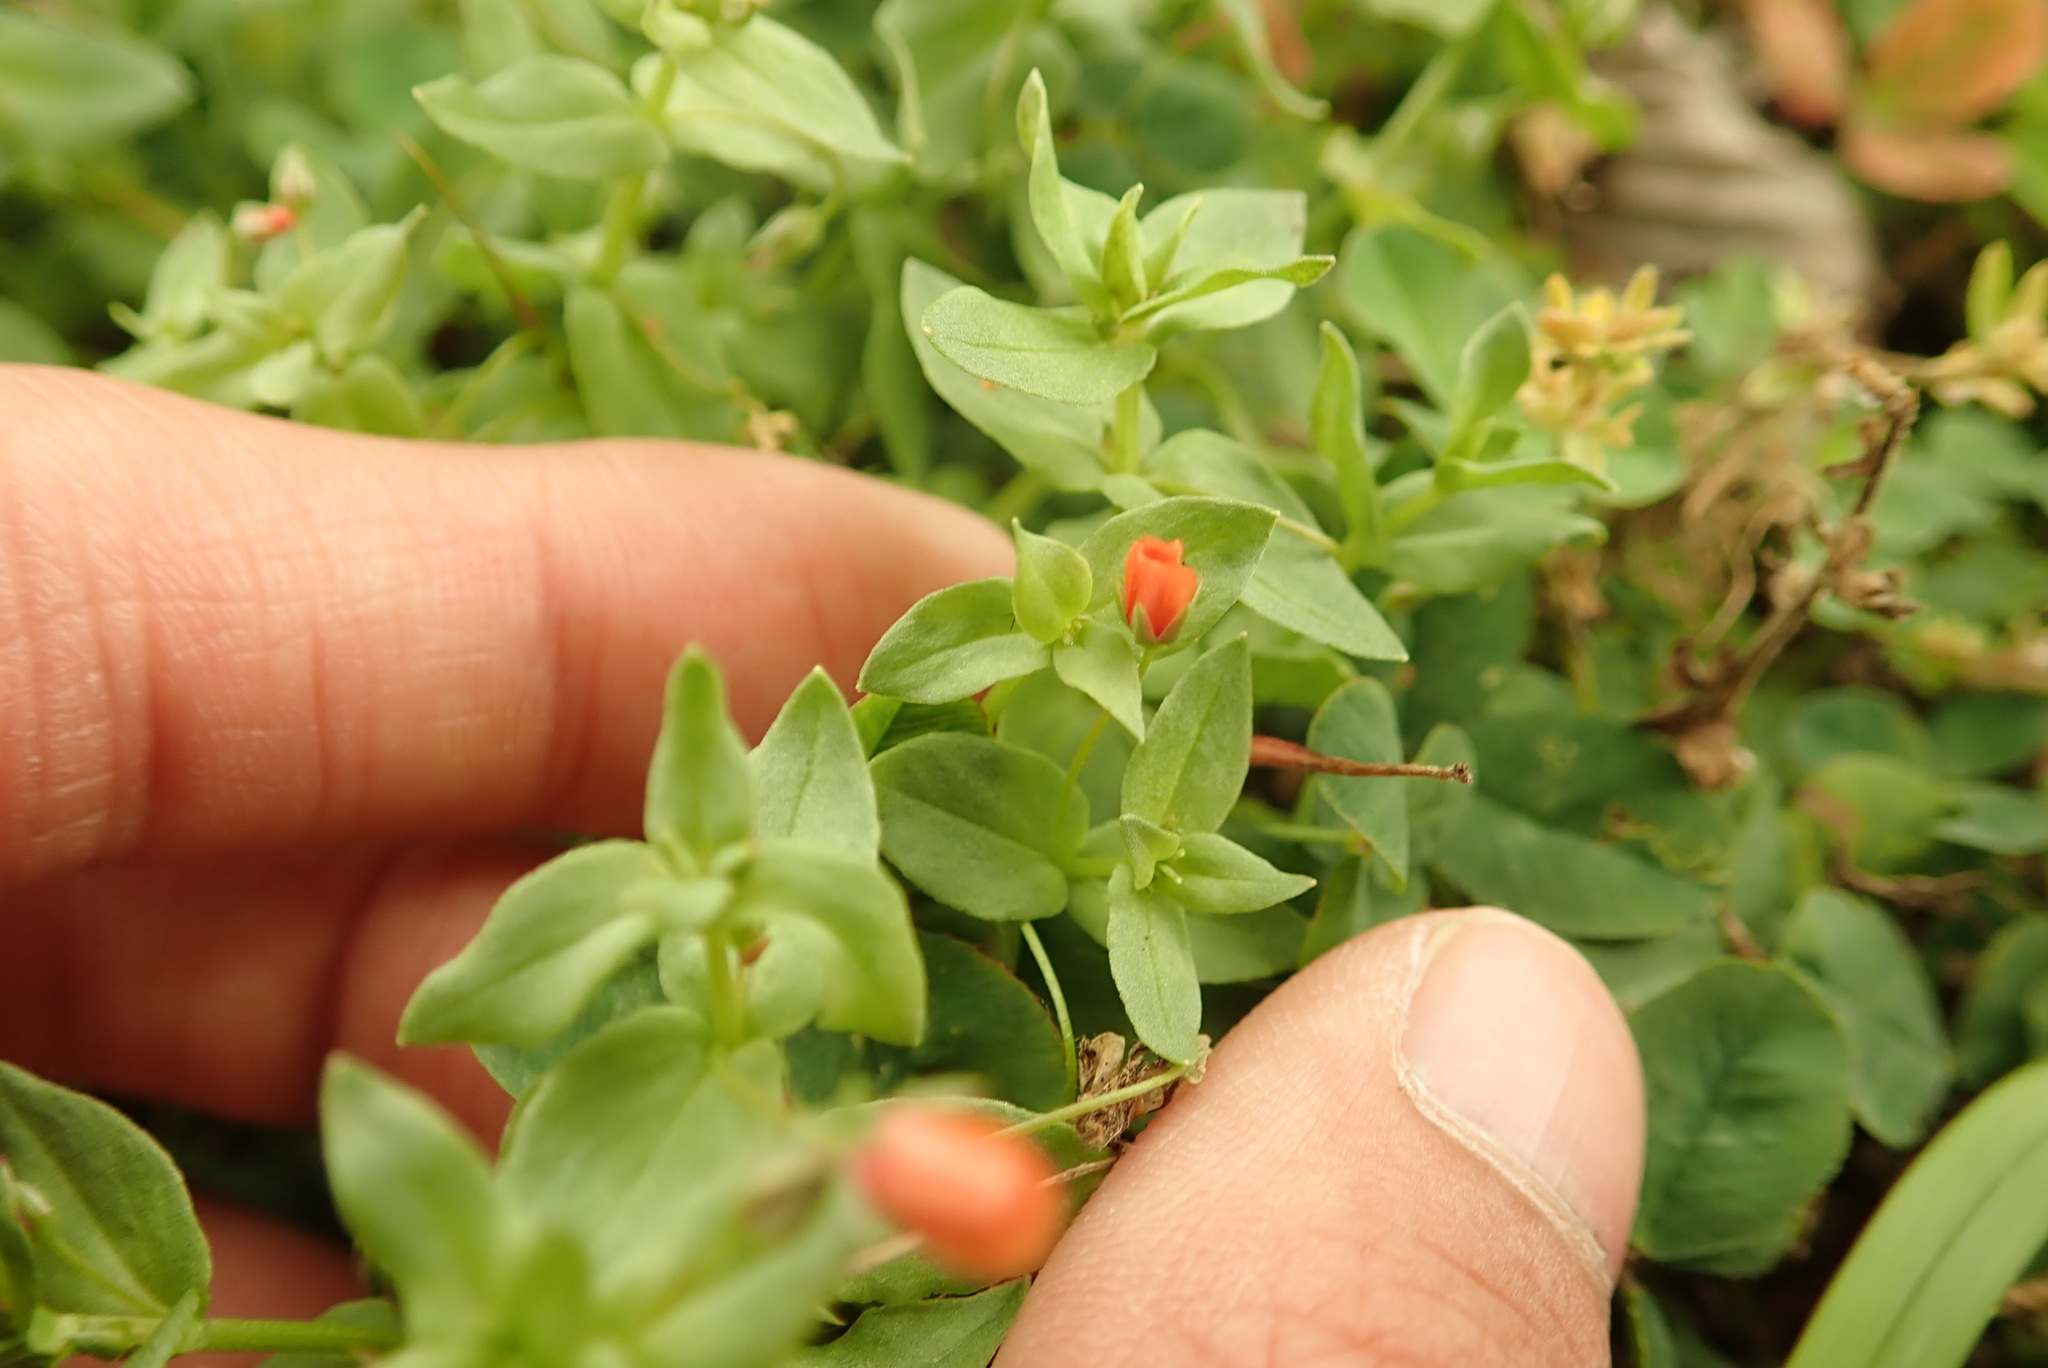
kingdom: Plantae
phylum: Tracheophyta
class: Magnoliopsida
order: Ericales
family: Primulaceae
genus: Lysimachia
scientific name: Lysimachia arvensis
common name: Scarlet pimpernel
